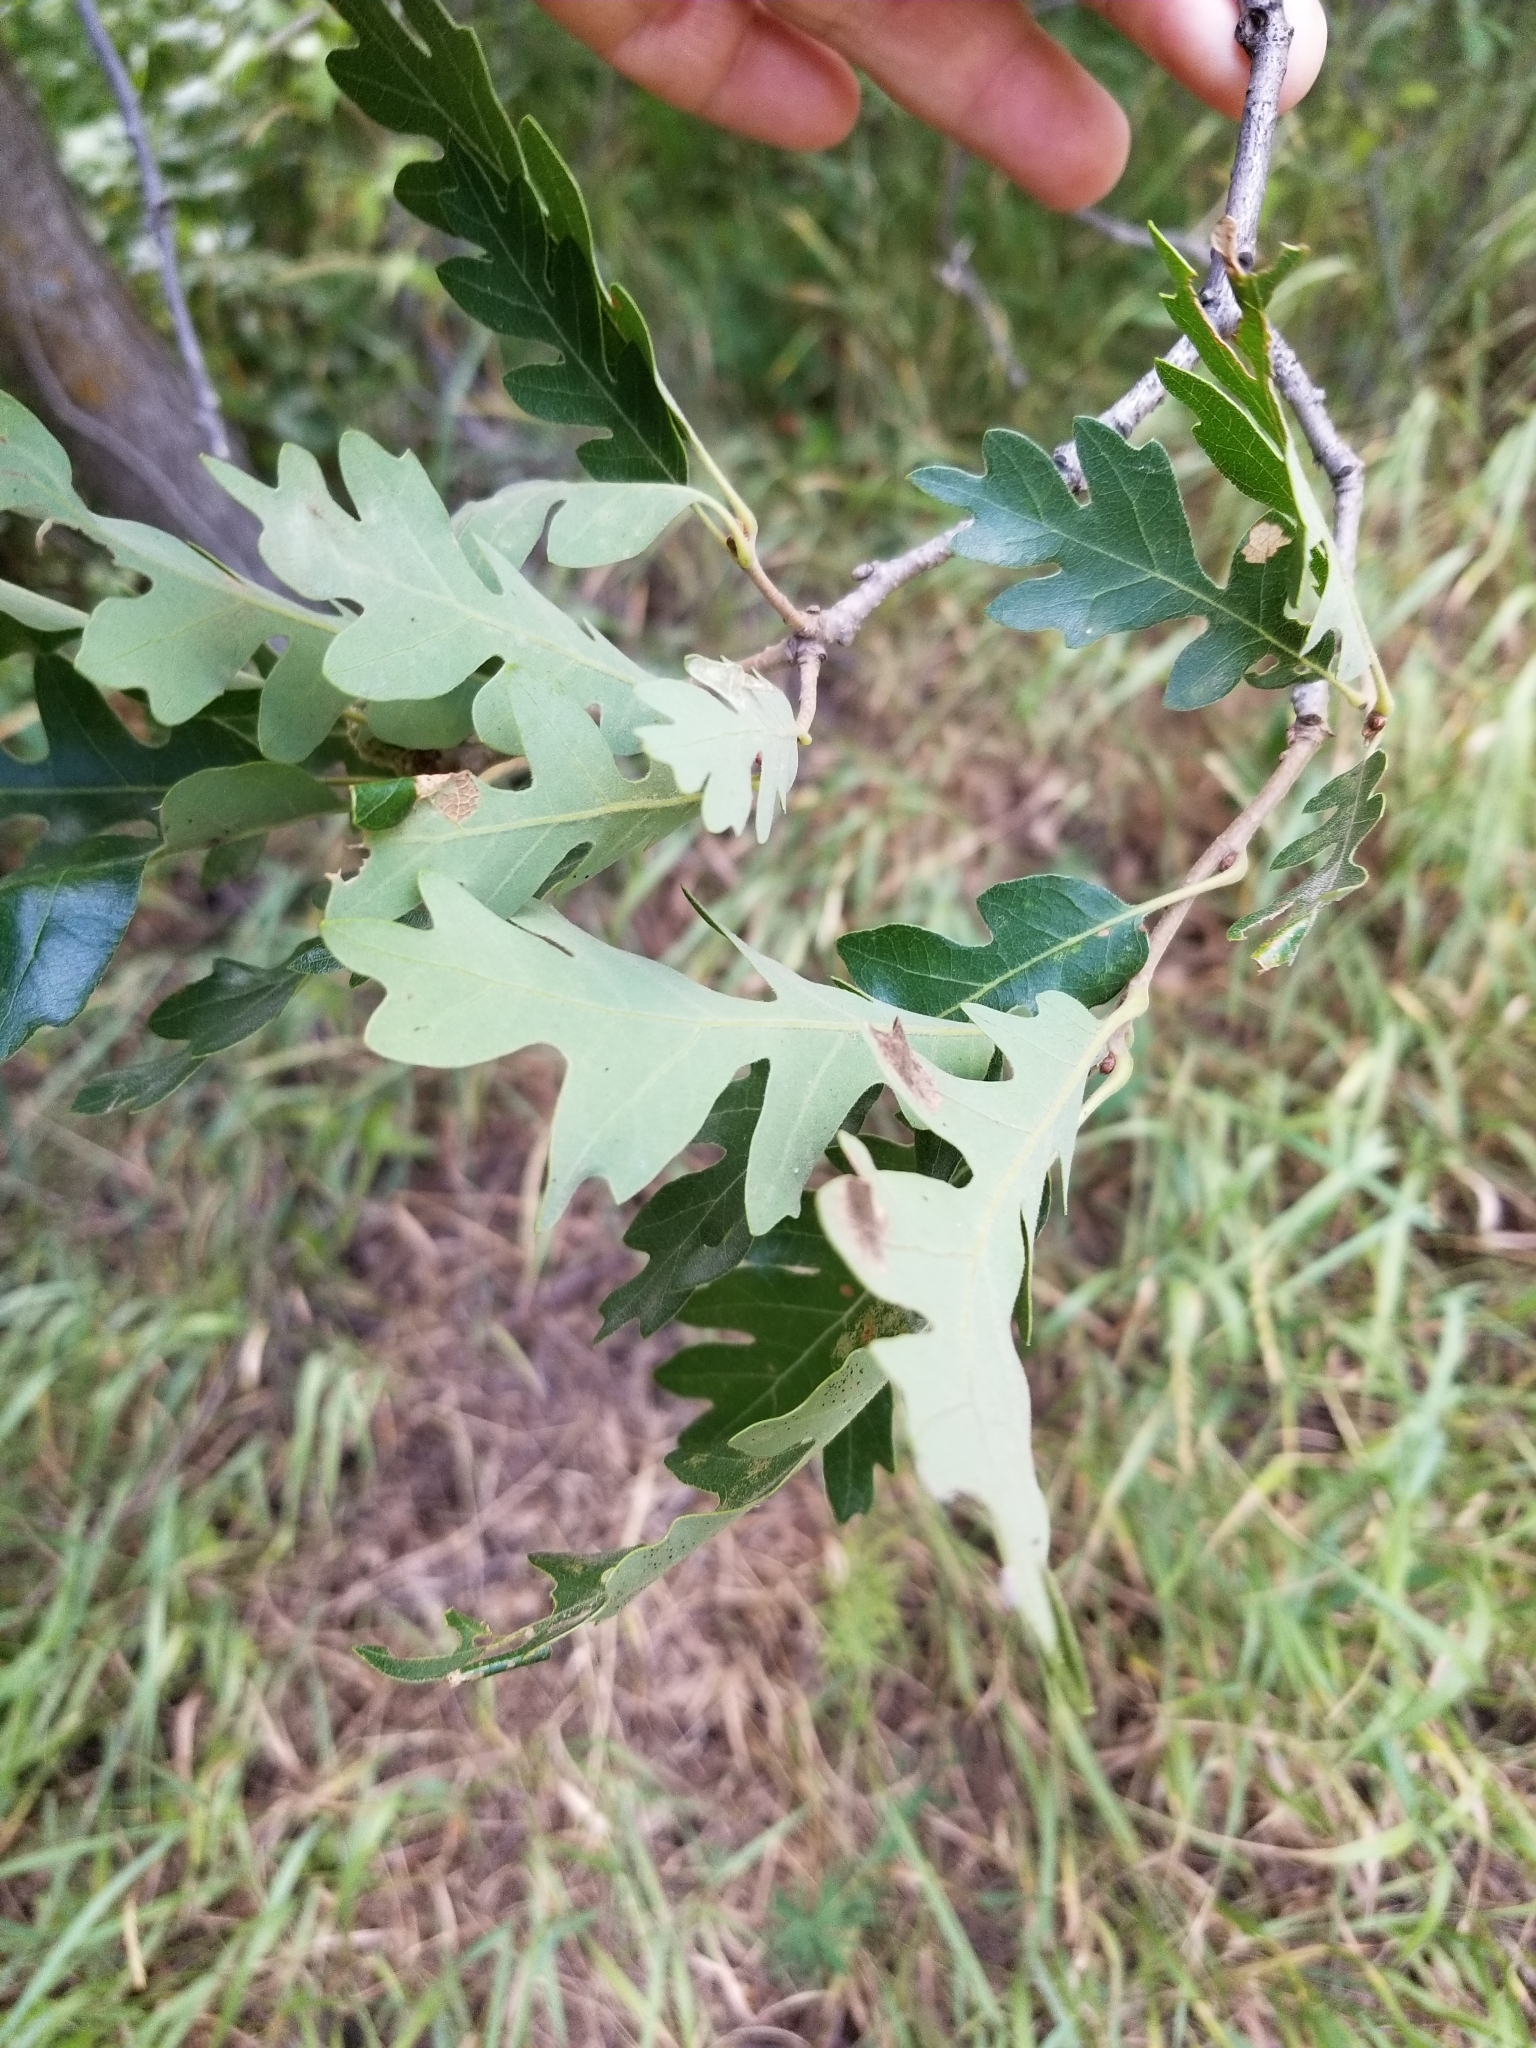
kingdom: Plantae
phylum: Tracheophyta
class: Magnoliopsida
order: Fagales
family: Fagaceae
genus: Quercus
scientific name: Quercus gambelii
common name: Gambel oak
